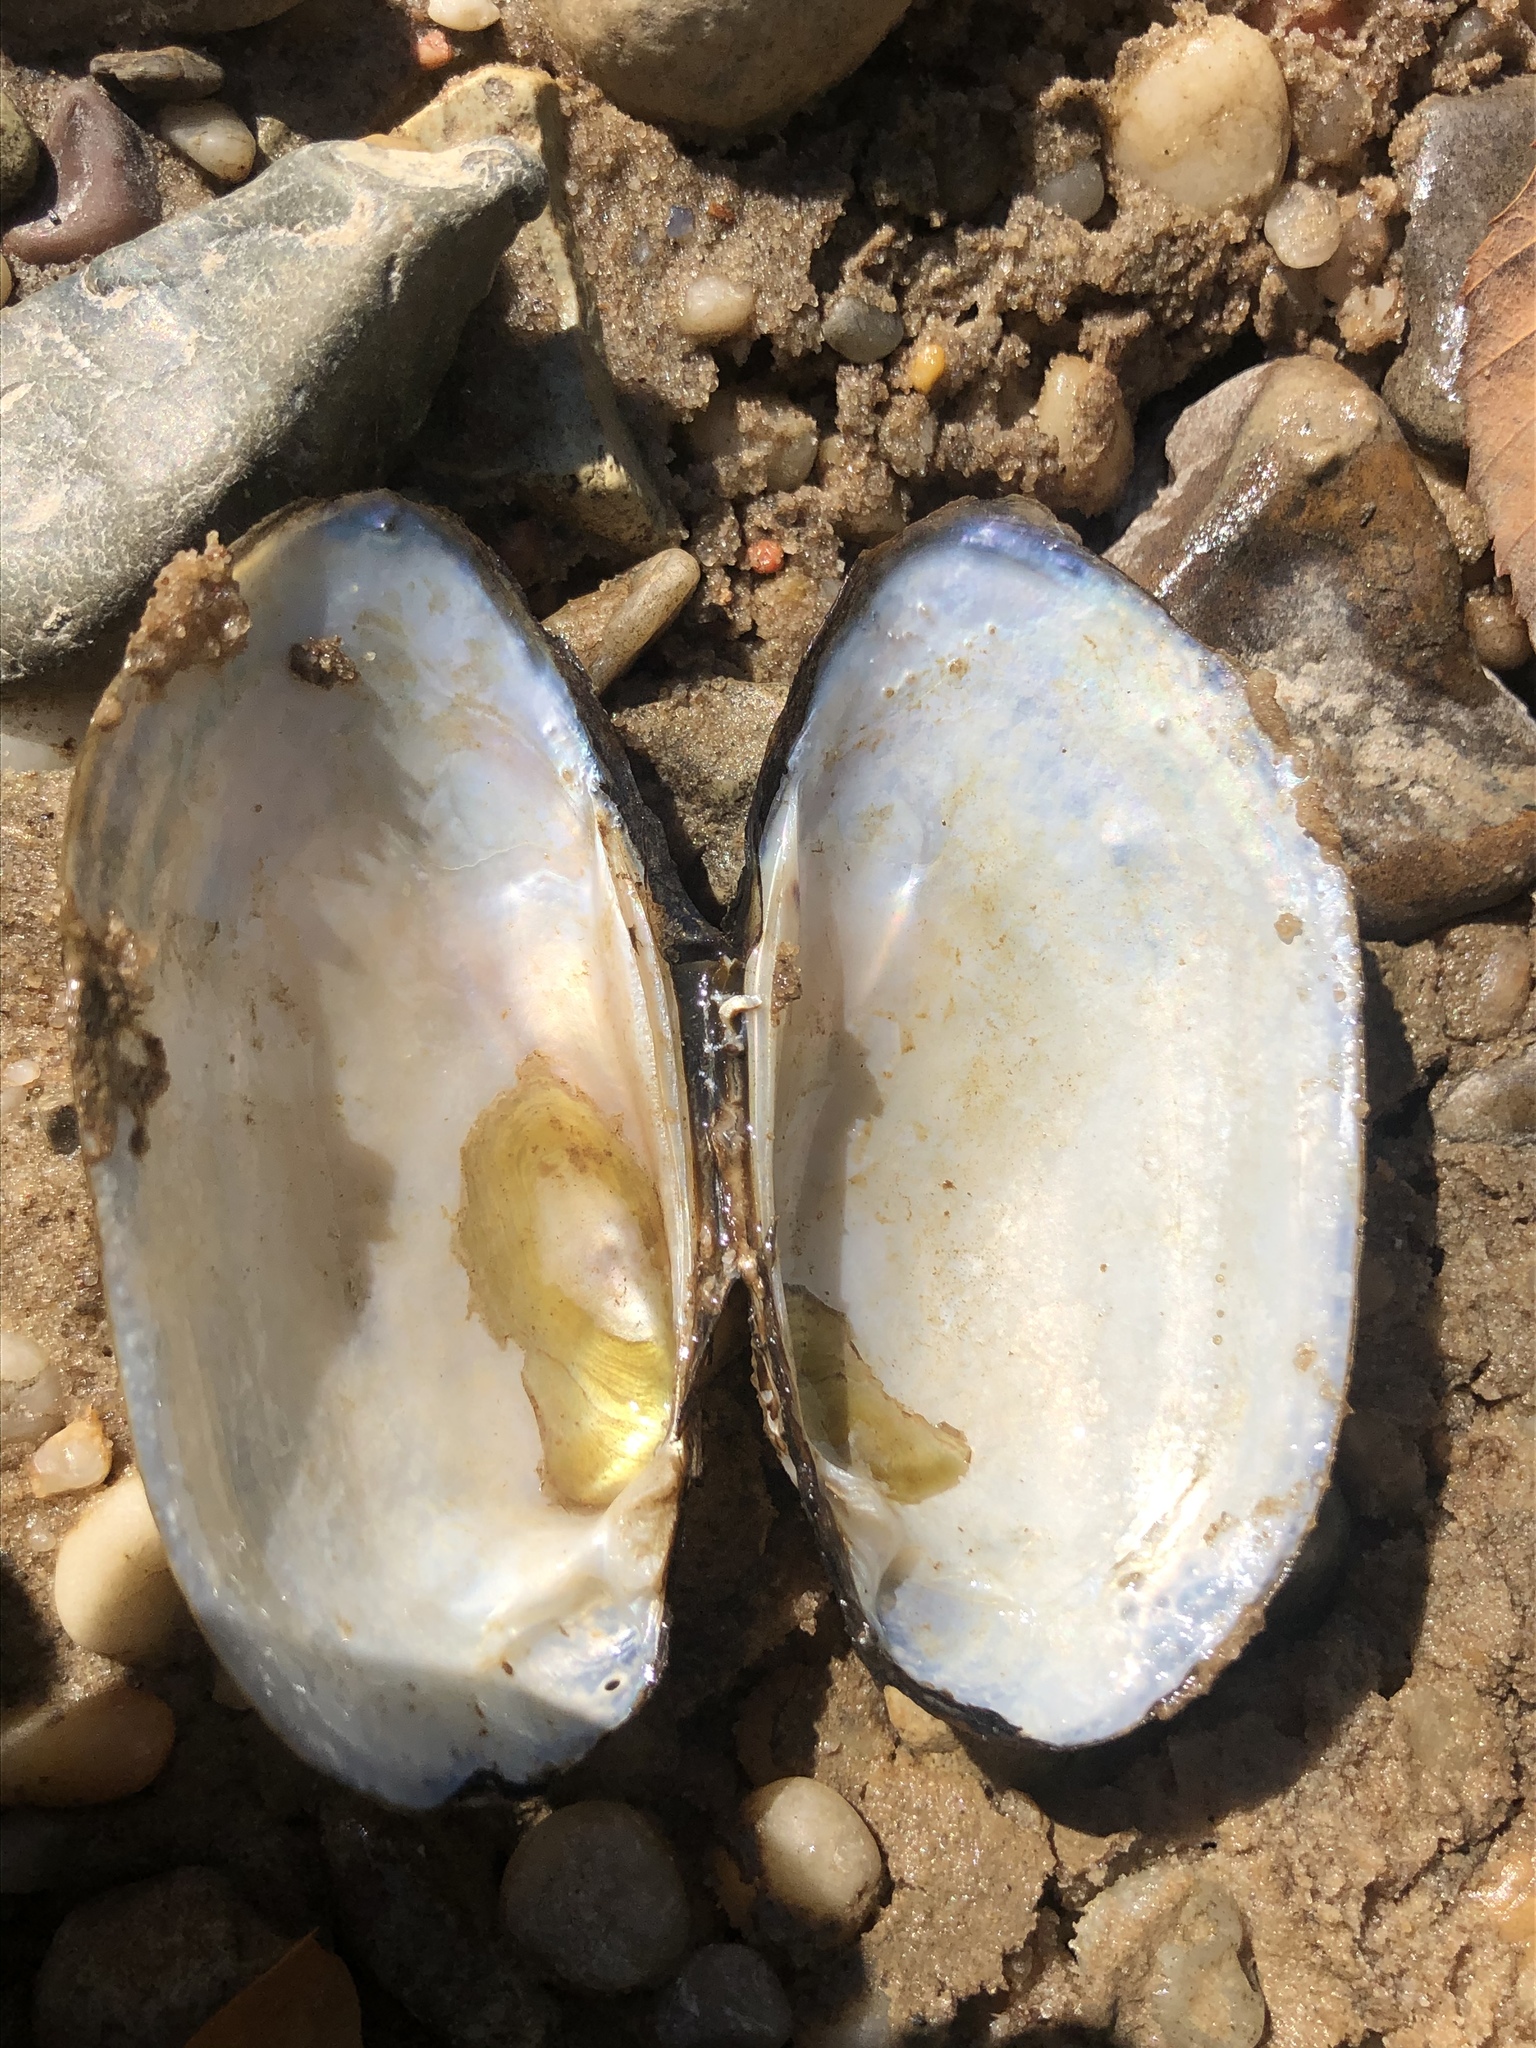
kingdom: Animalia
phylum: Mollusca
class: Bivalvia
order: Unionida
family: Unionidae
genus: Lampsilis
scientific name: Lampsilis teres
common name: Yellow sandshell
